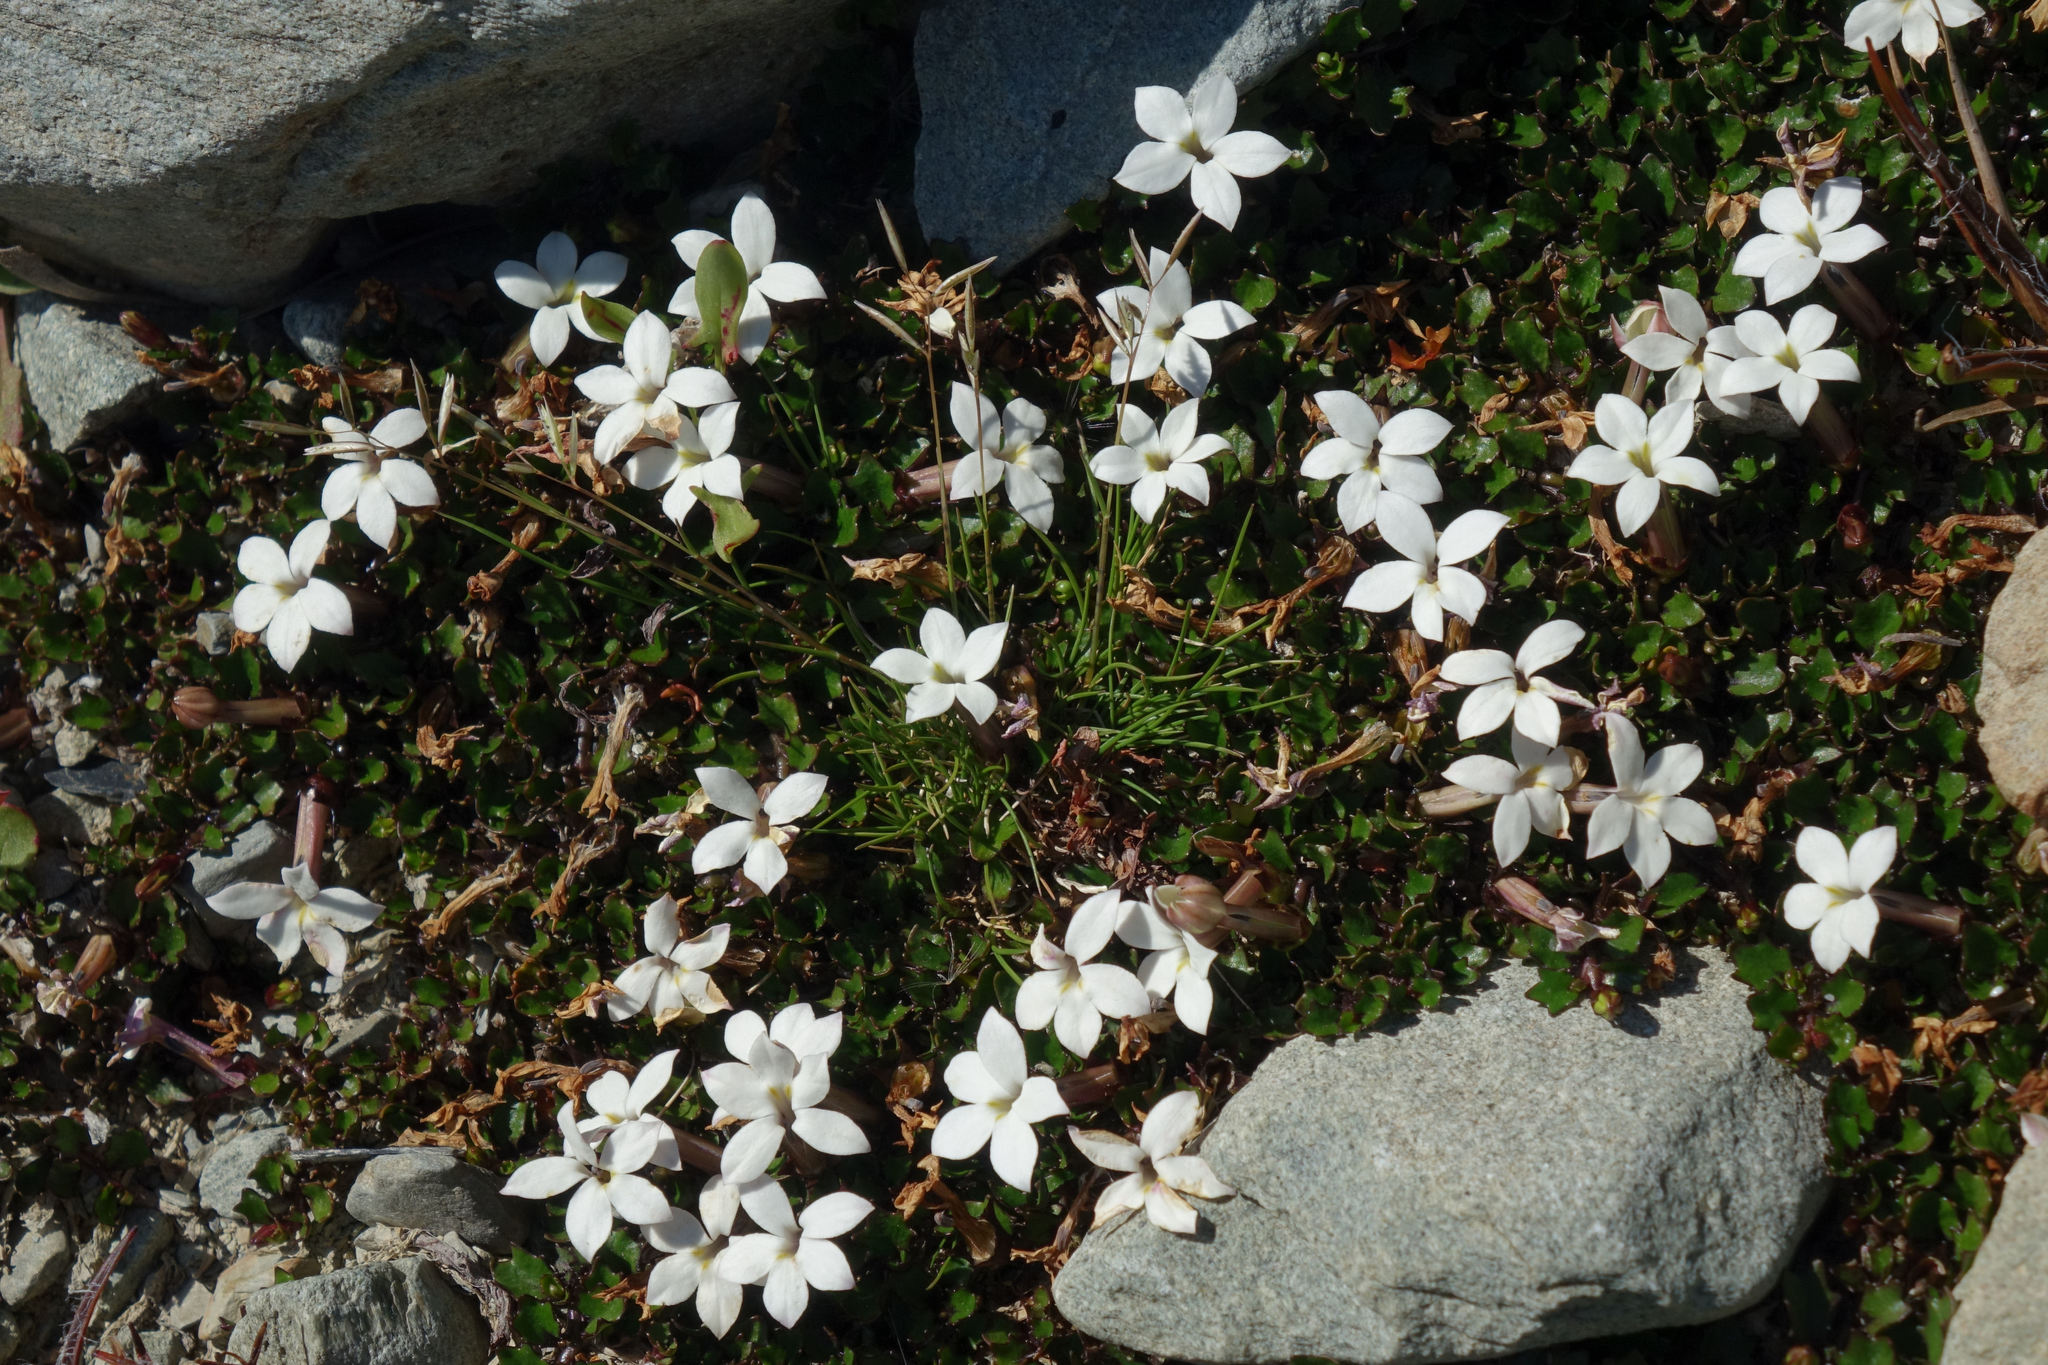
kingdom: Plantae
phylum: Tracheophyta
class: Magnoliopsida
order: Asterales
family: Campanulaceae
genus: Lobelia
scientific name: Lobelia macrodon
